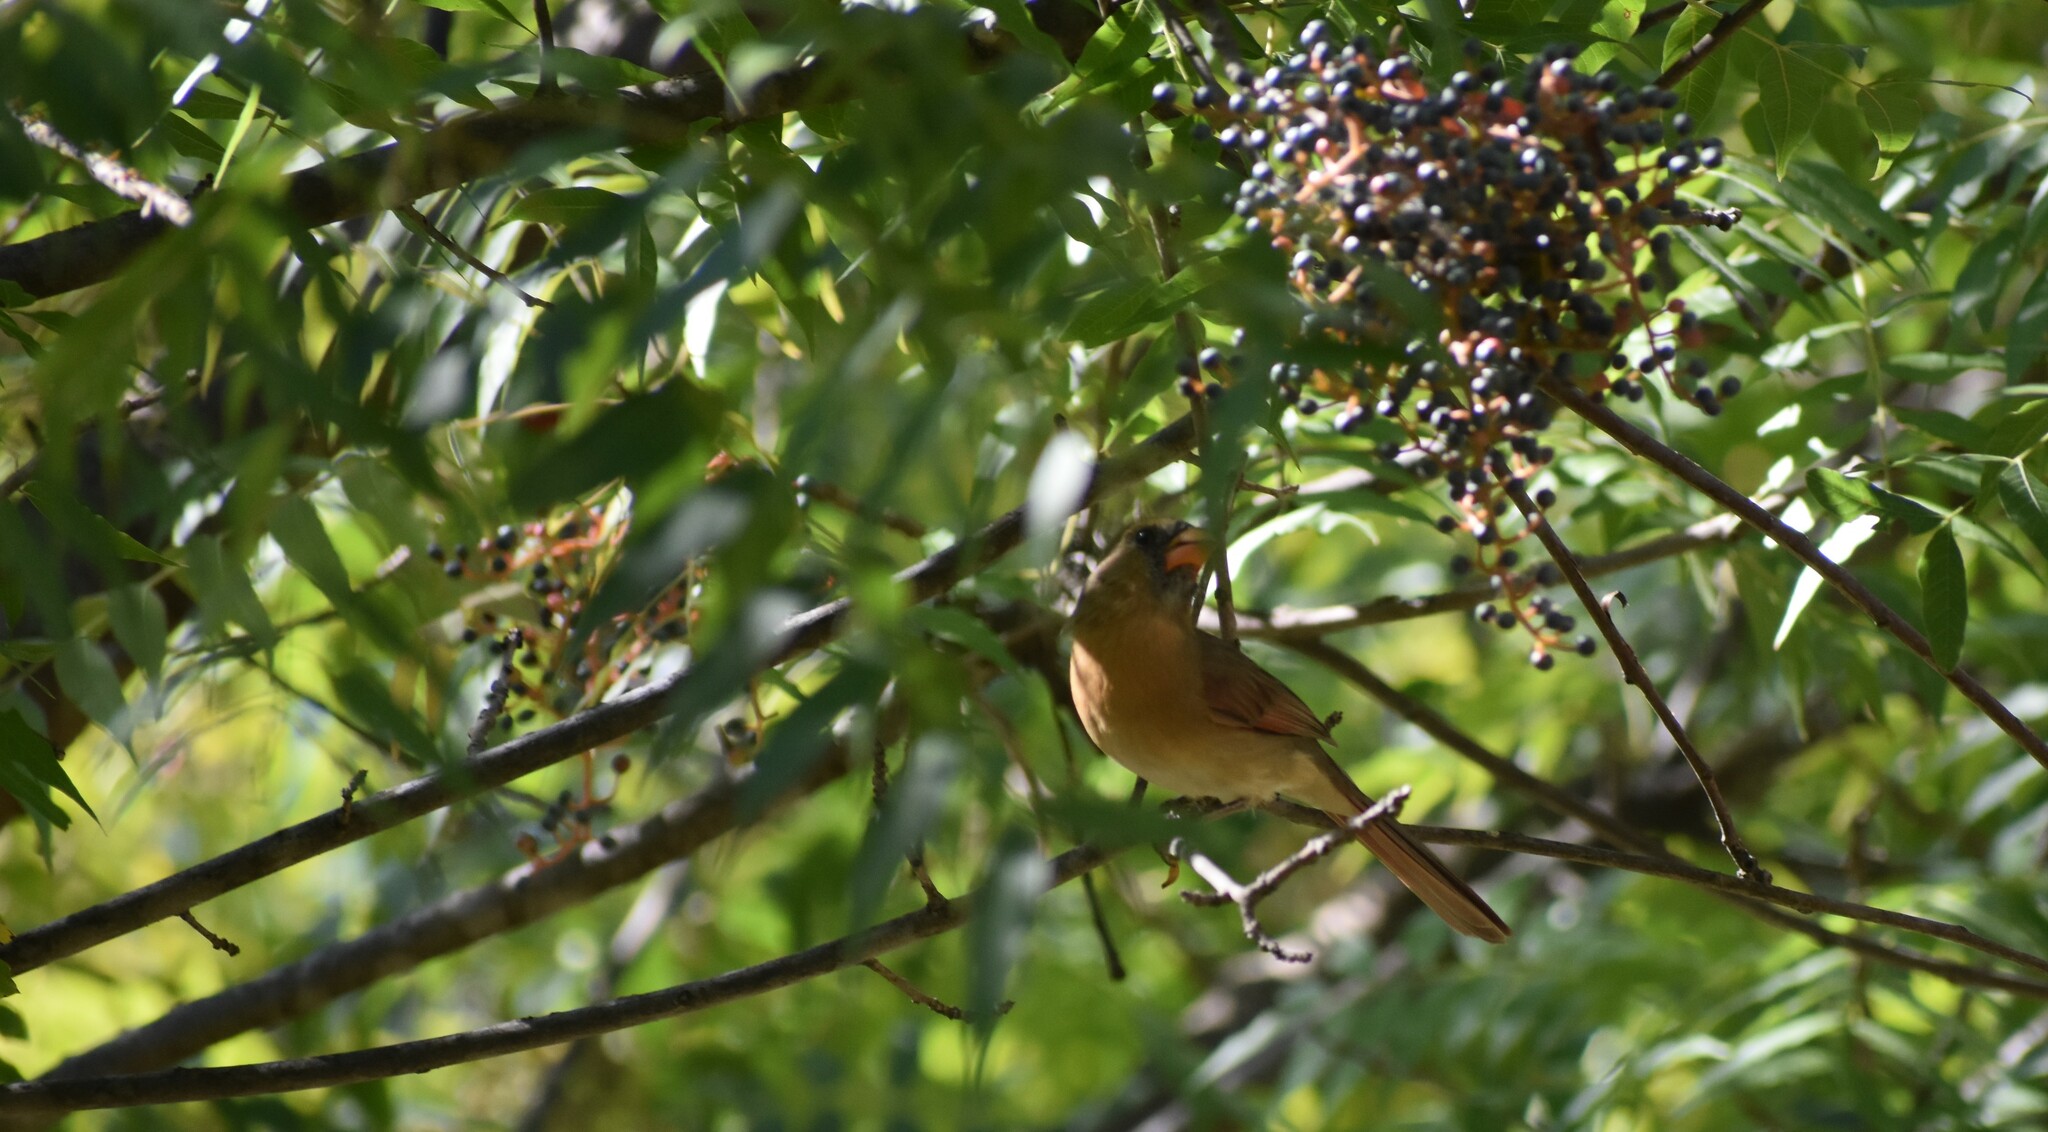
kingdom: Animalia
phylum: Chordata
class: Aves
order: Passeriformes
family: Cardinalidae
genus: Cardinalis
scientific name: Cardinalis cardinalis
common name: Northern cardinal
